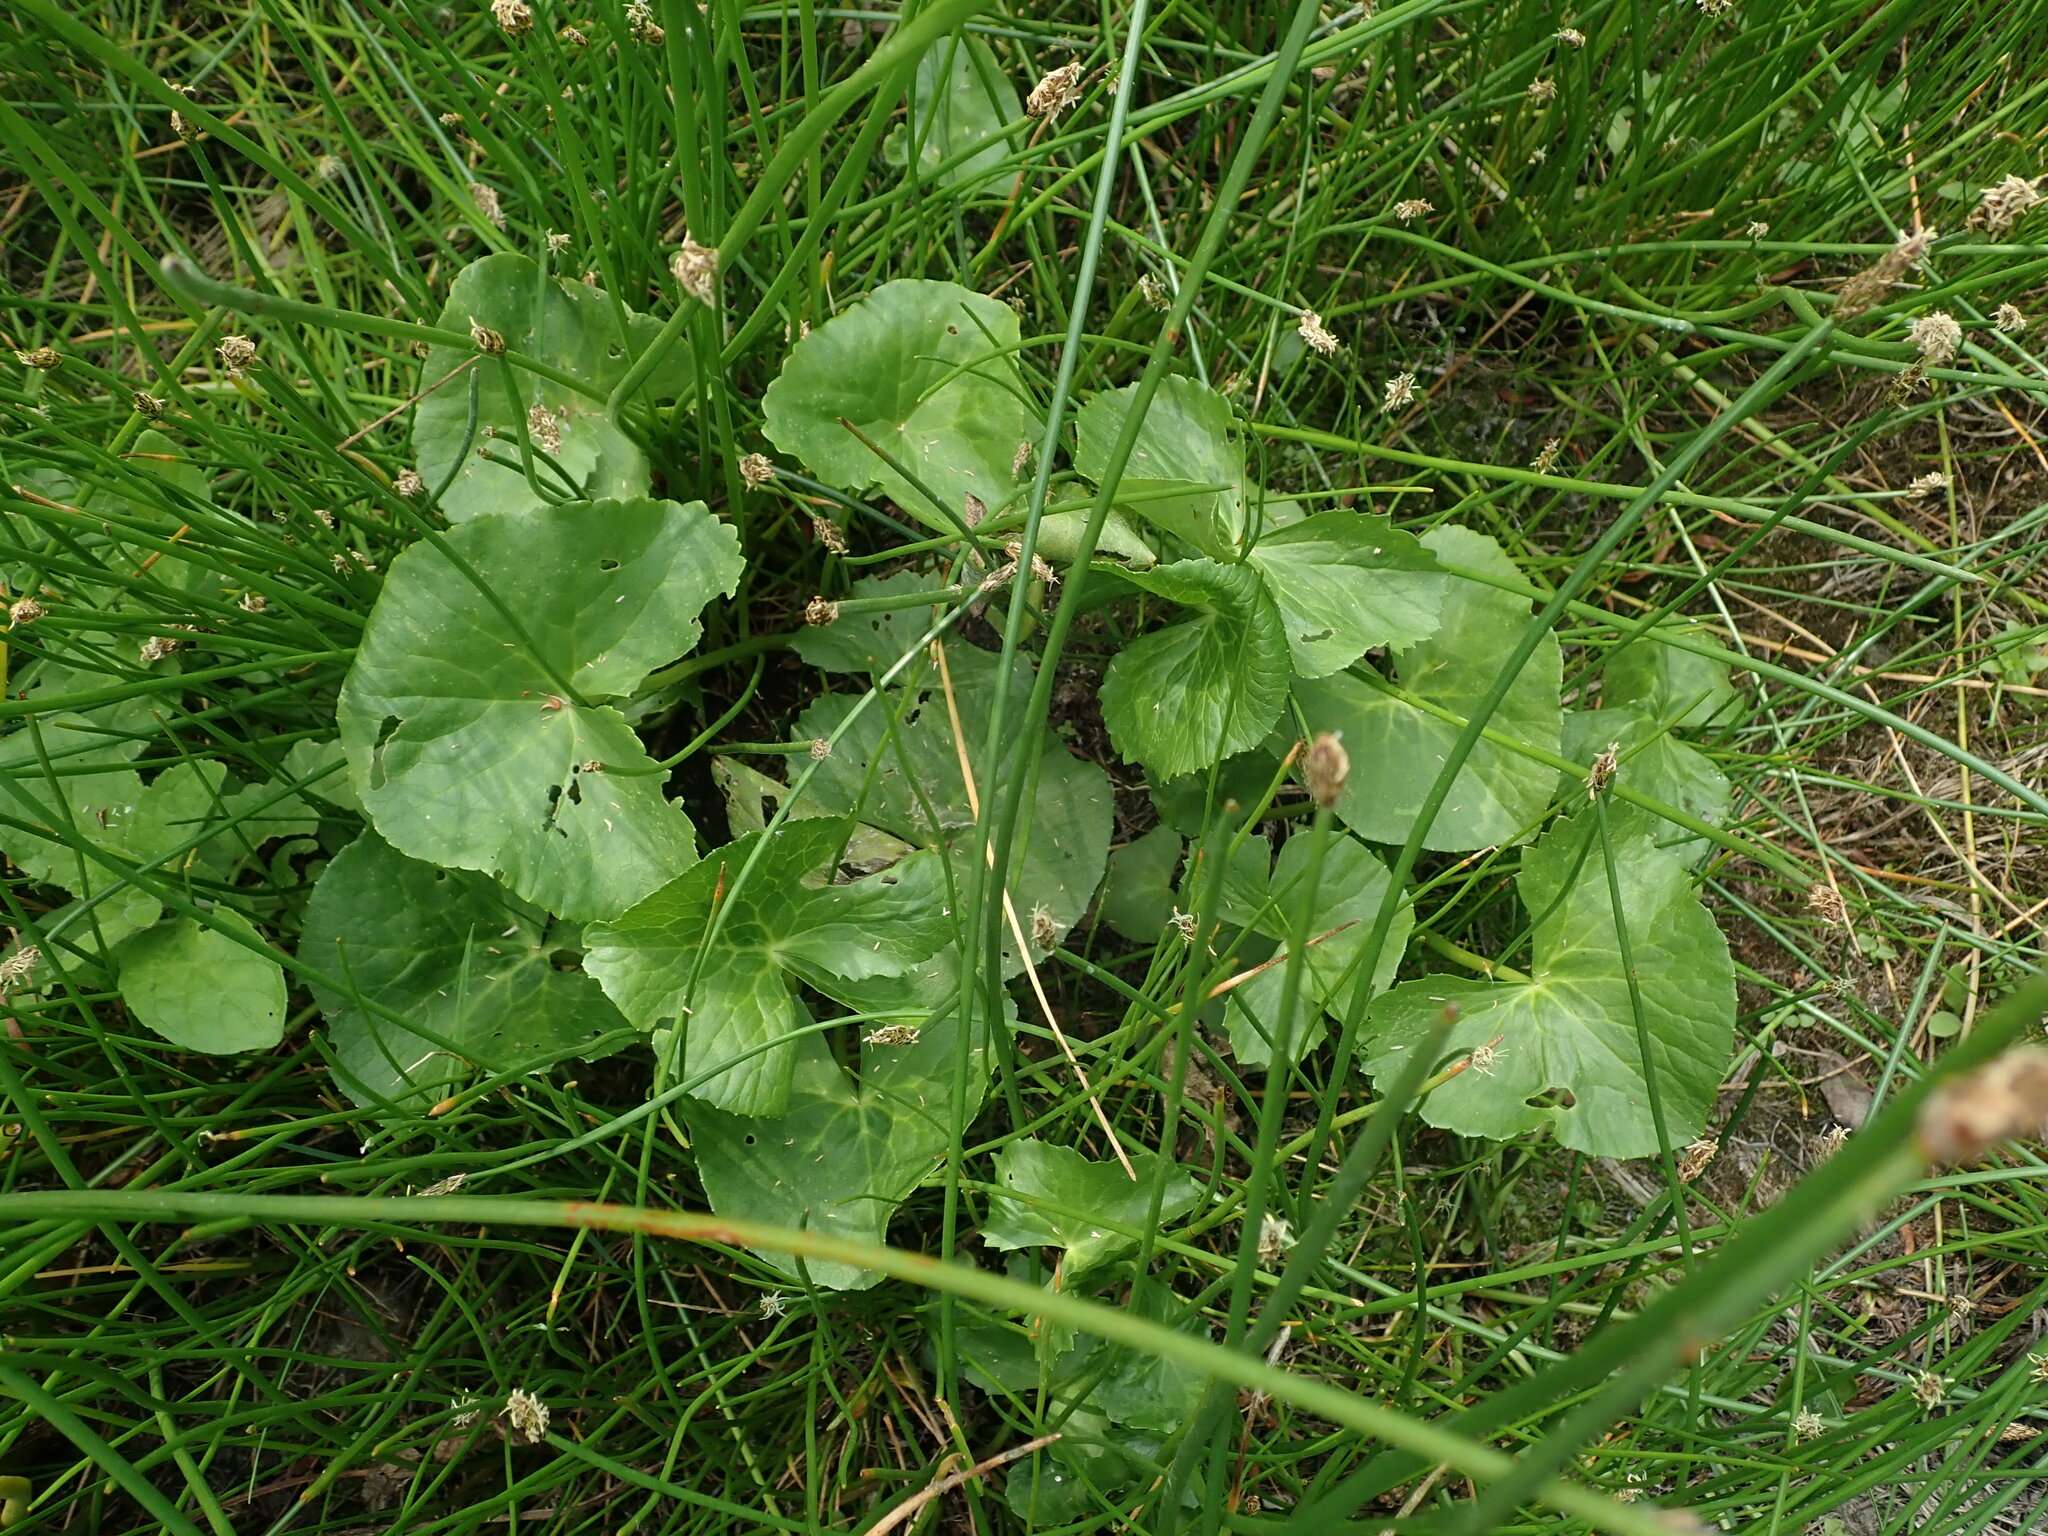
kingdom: Plantae
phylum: Tracheophyta
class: Magnoliopsida
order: Ranunculales
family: Ranunculaceae
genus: Caltha
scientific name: Caltha palustris
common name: Marsh marigold
